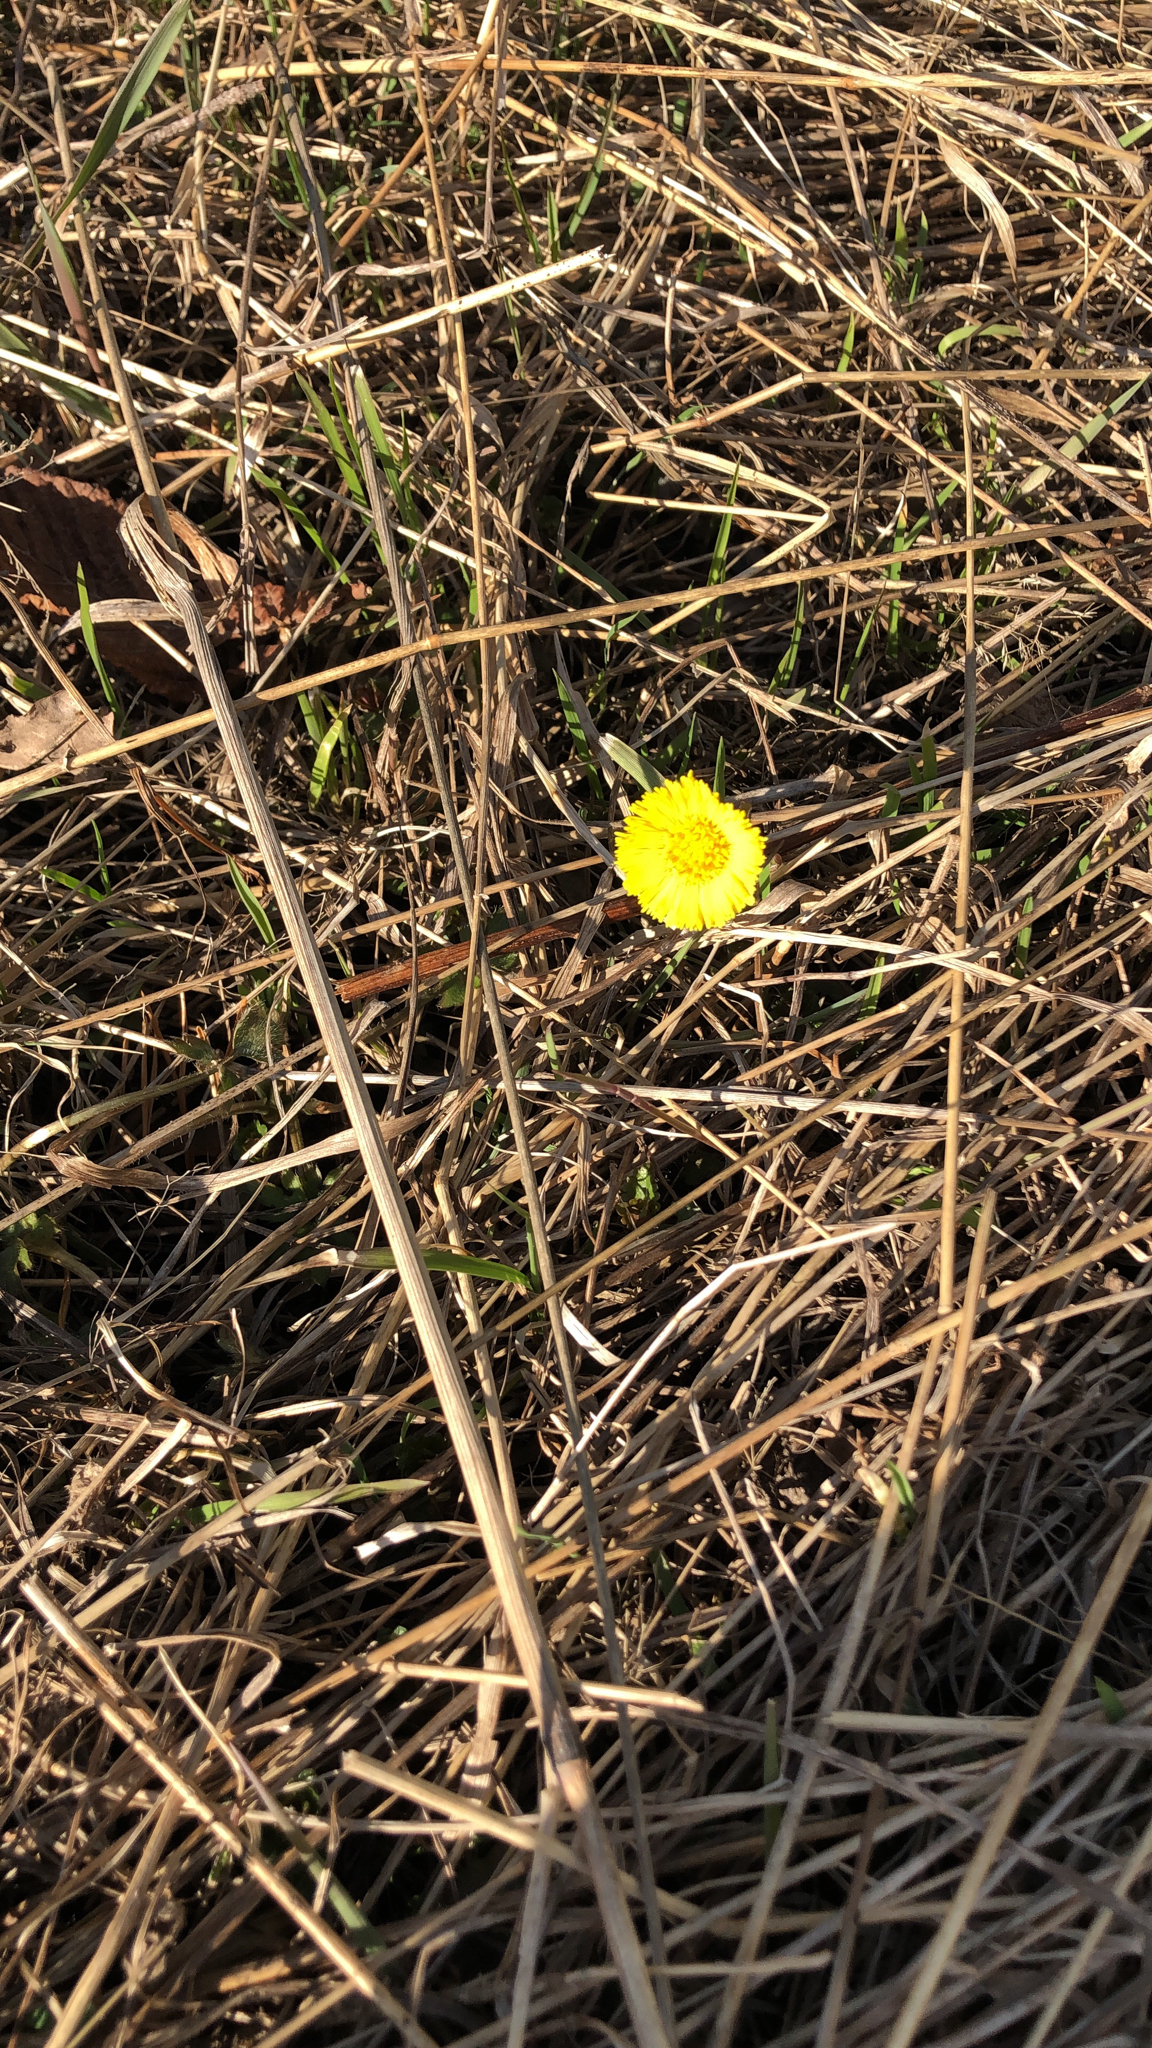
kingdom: Plantae
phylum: Tracheophyta
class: Magnoliopsida
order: Asterales
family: Asteraceae
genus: Tussilago
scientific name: Tussilago farfara
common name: Coltsfoot
